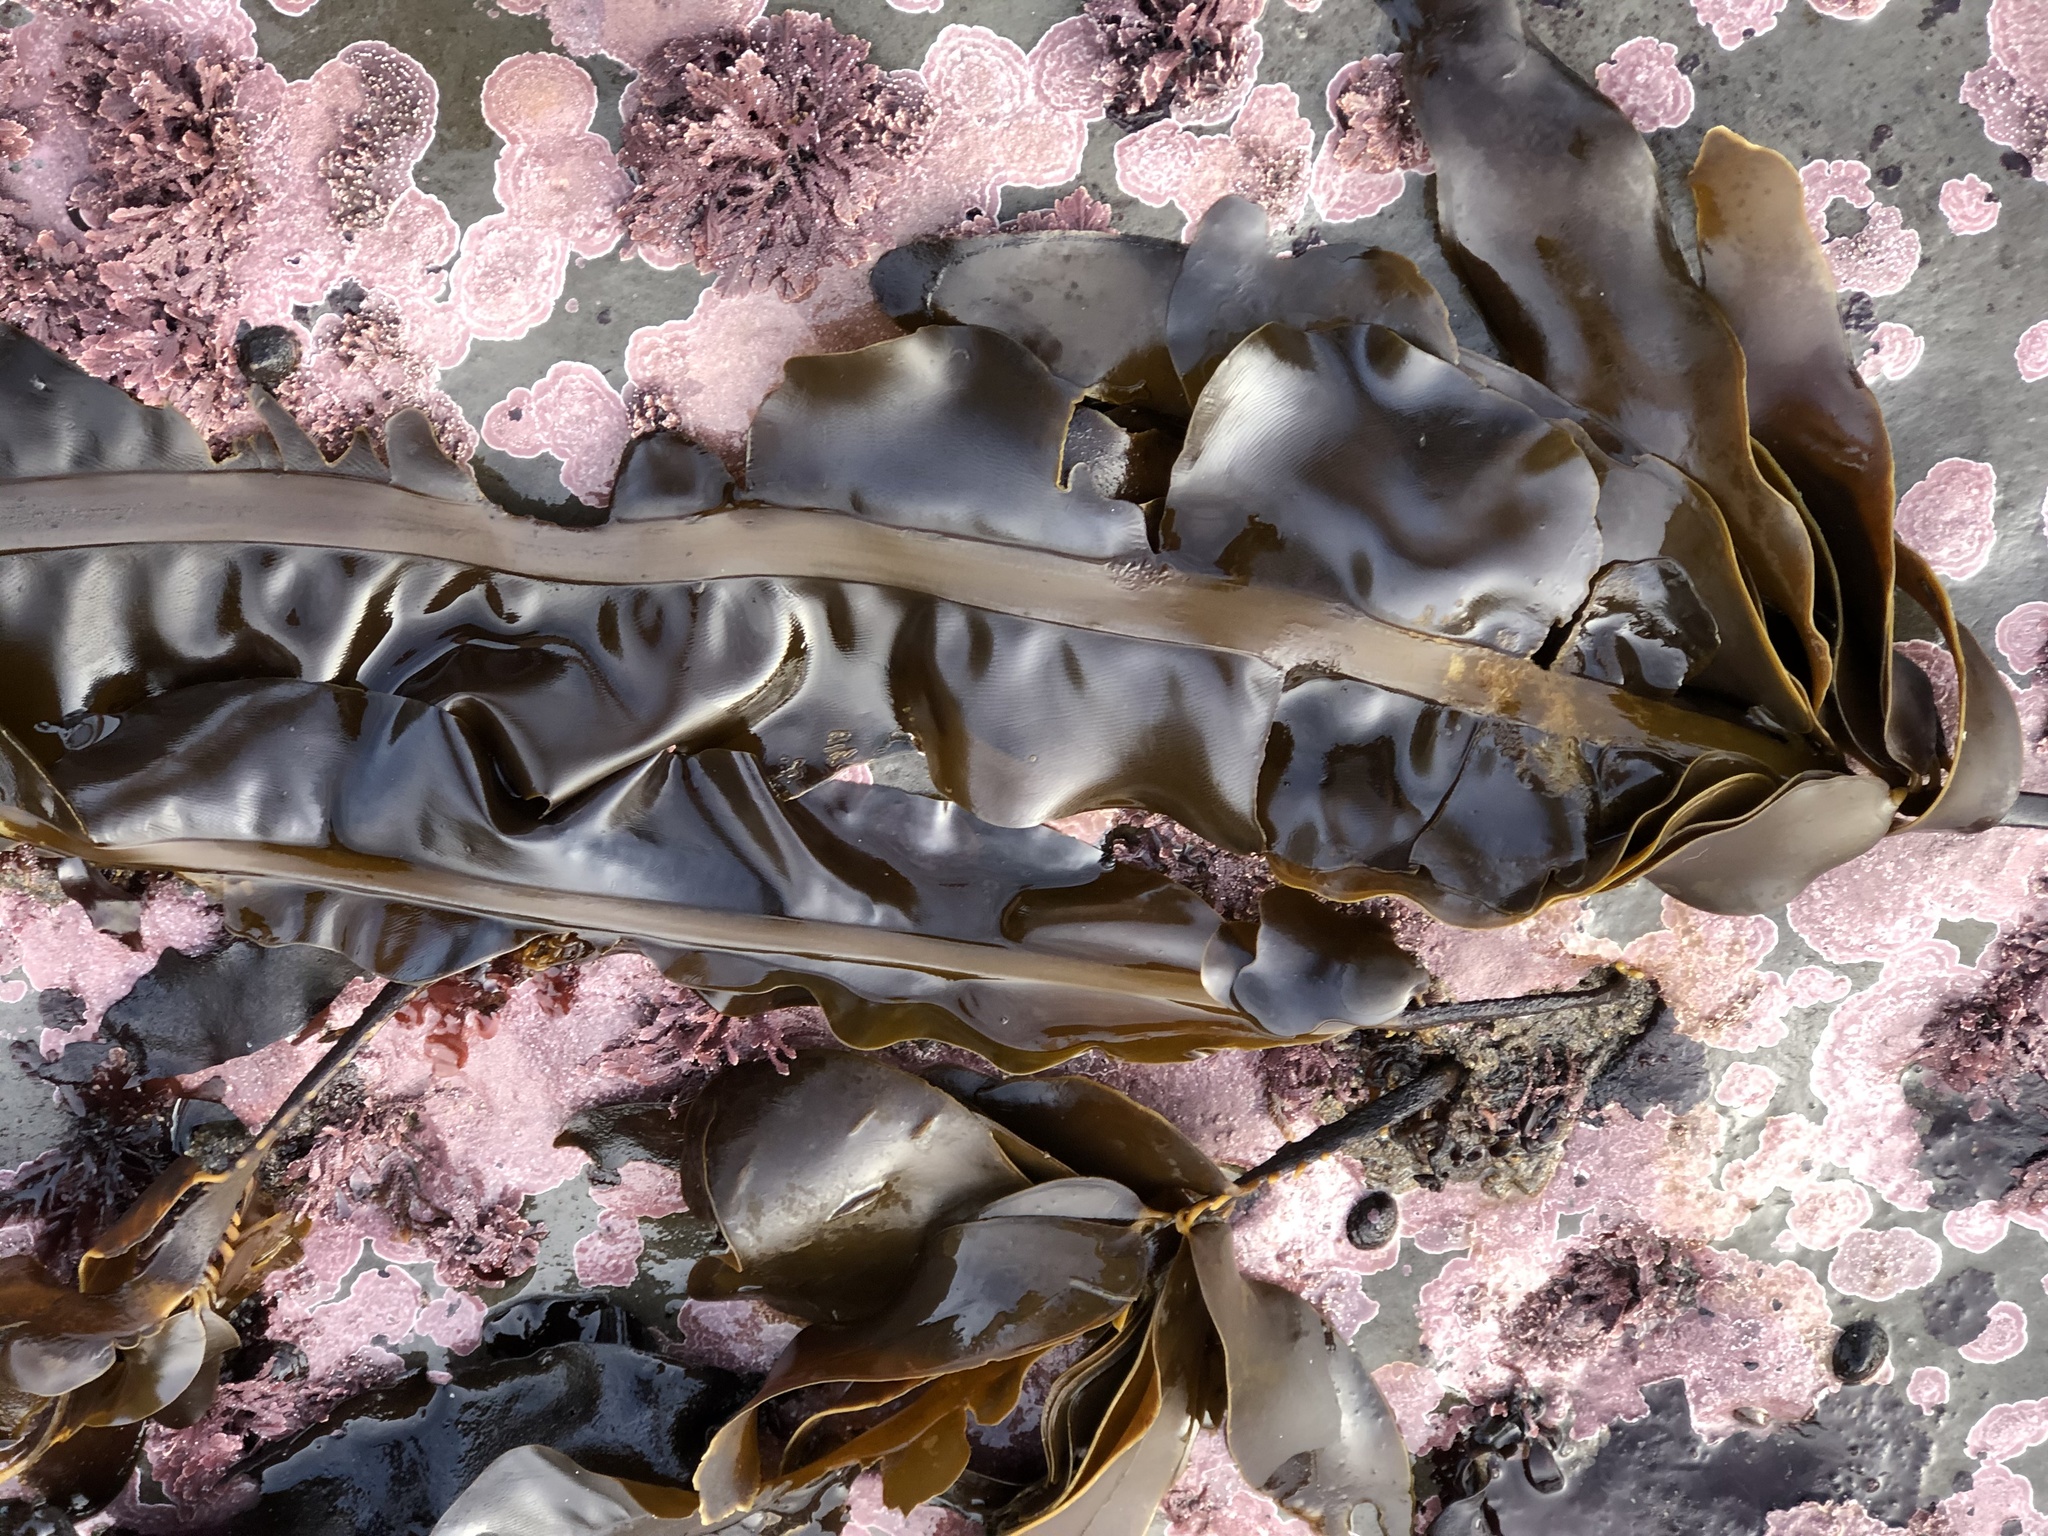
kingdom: Chromista
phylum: Ochrophyta
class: Phaeophyceae
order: Laminariales
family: Alariaceae
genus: Alaria
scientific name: Alaria marginata
